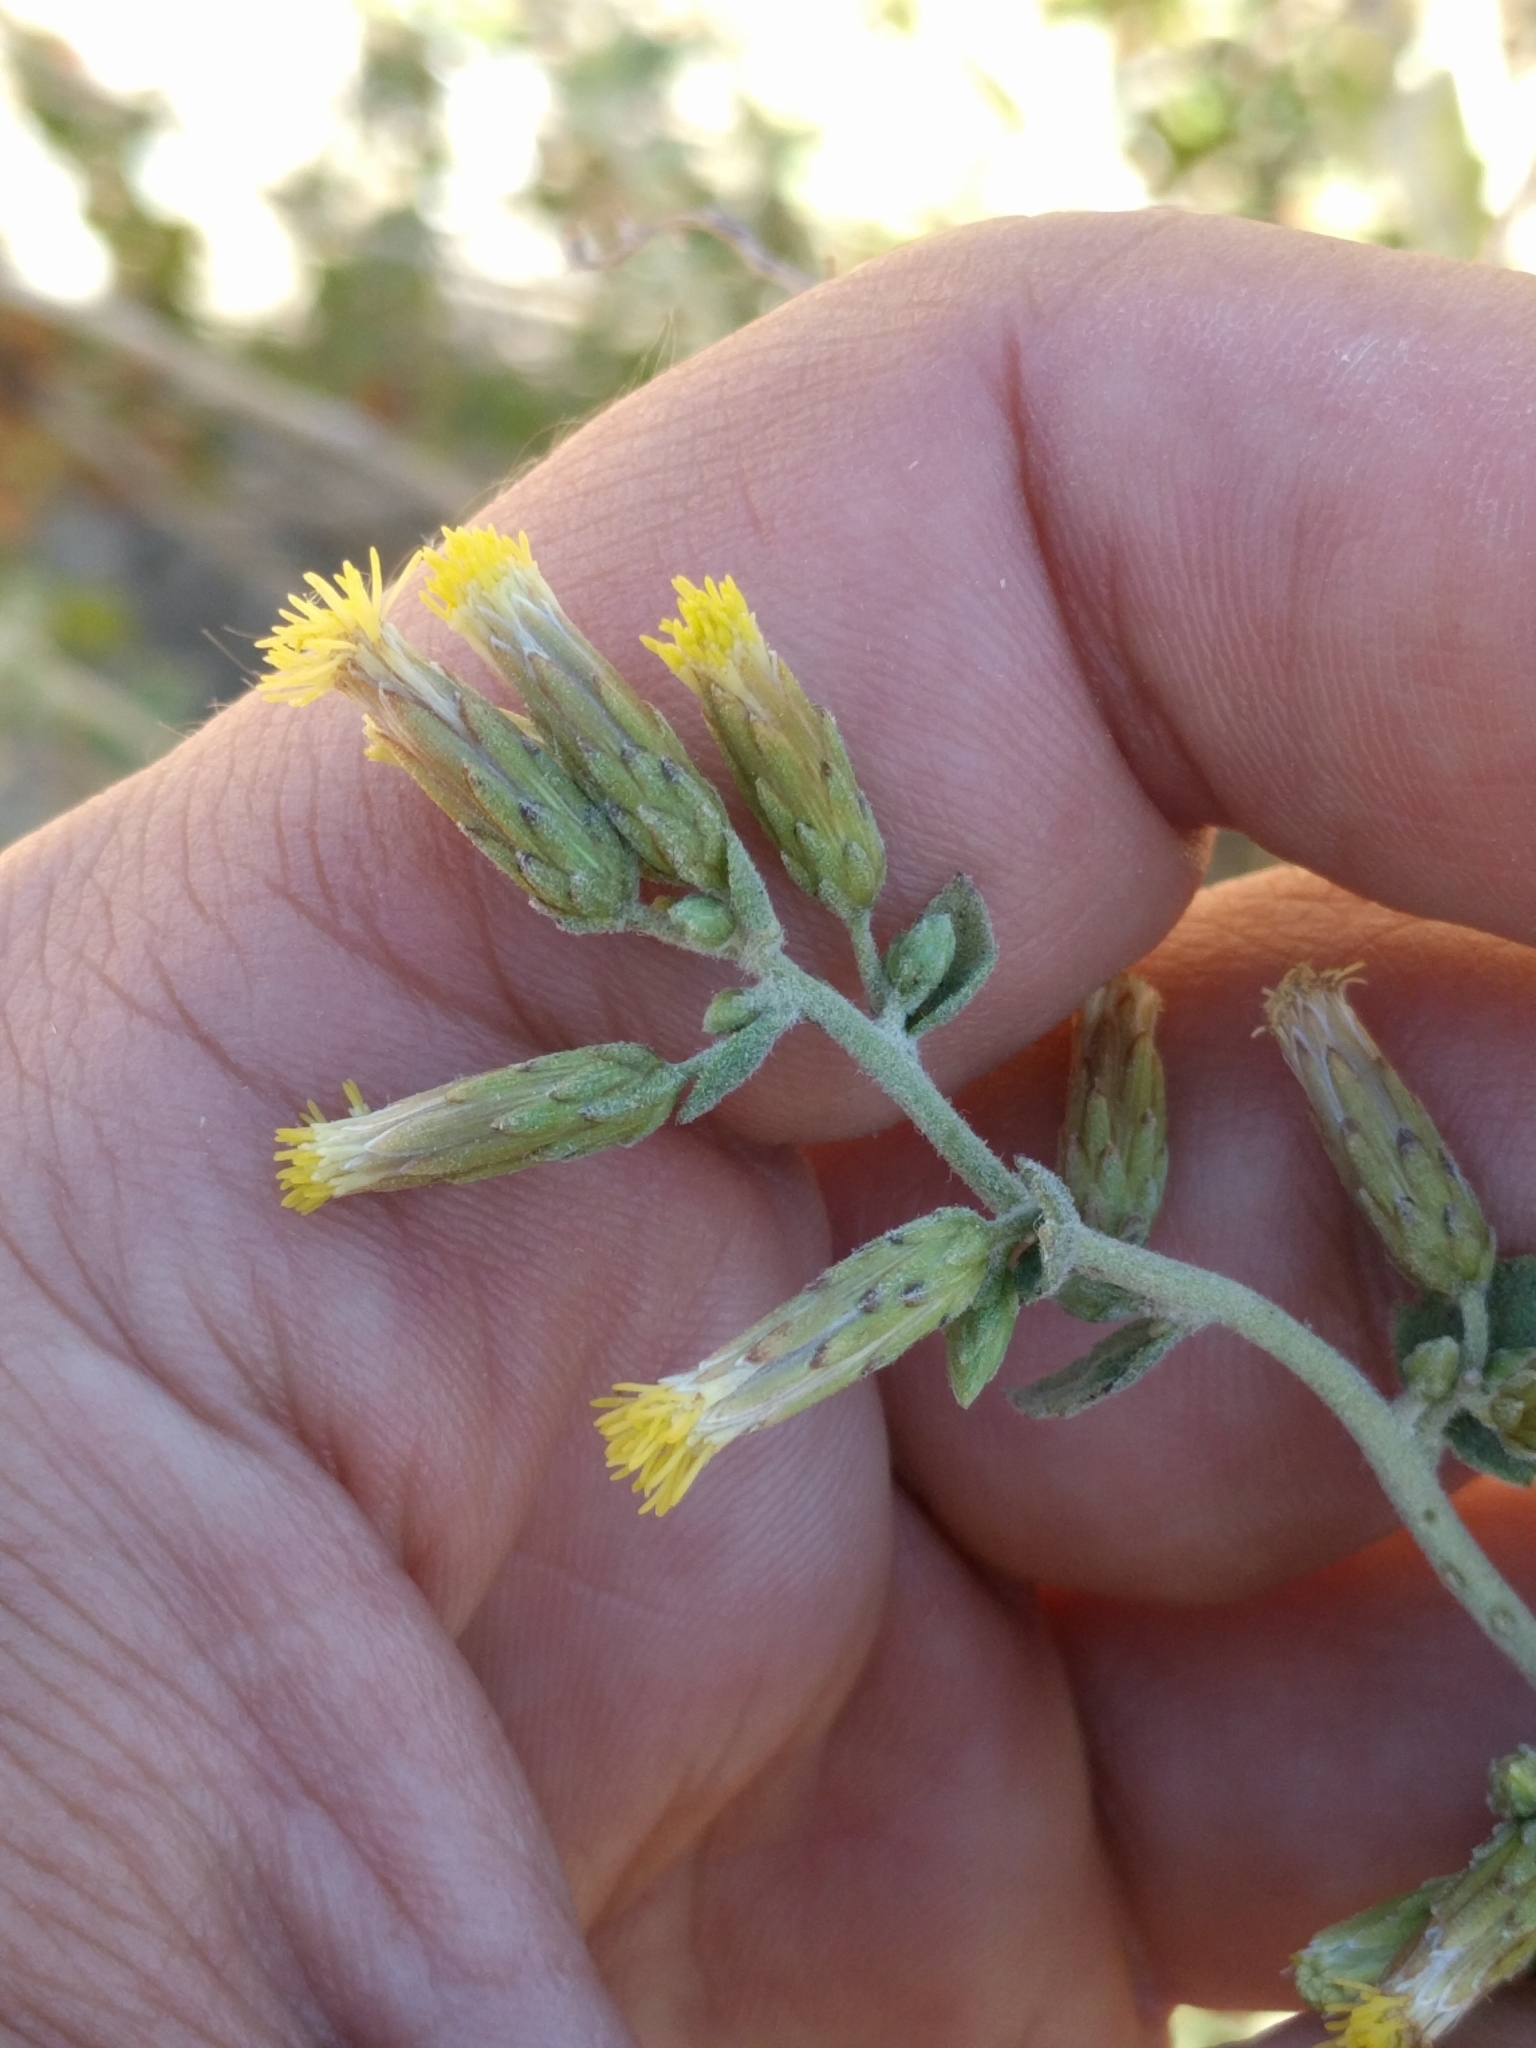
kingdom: Plantae
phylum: Tracheophyta
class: Magnoliopsida
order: Asterales
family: Asteraceae
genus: Brickellia
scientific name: Brickellia californica
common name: California brickellbush
